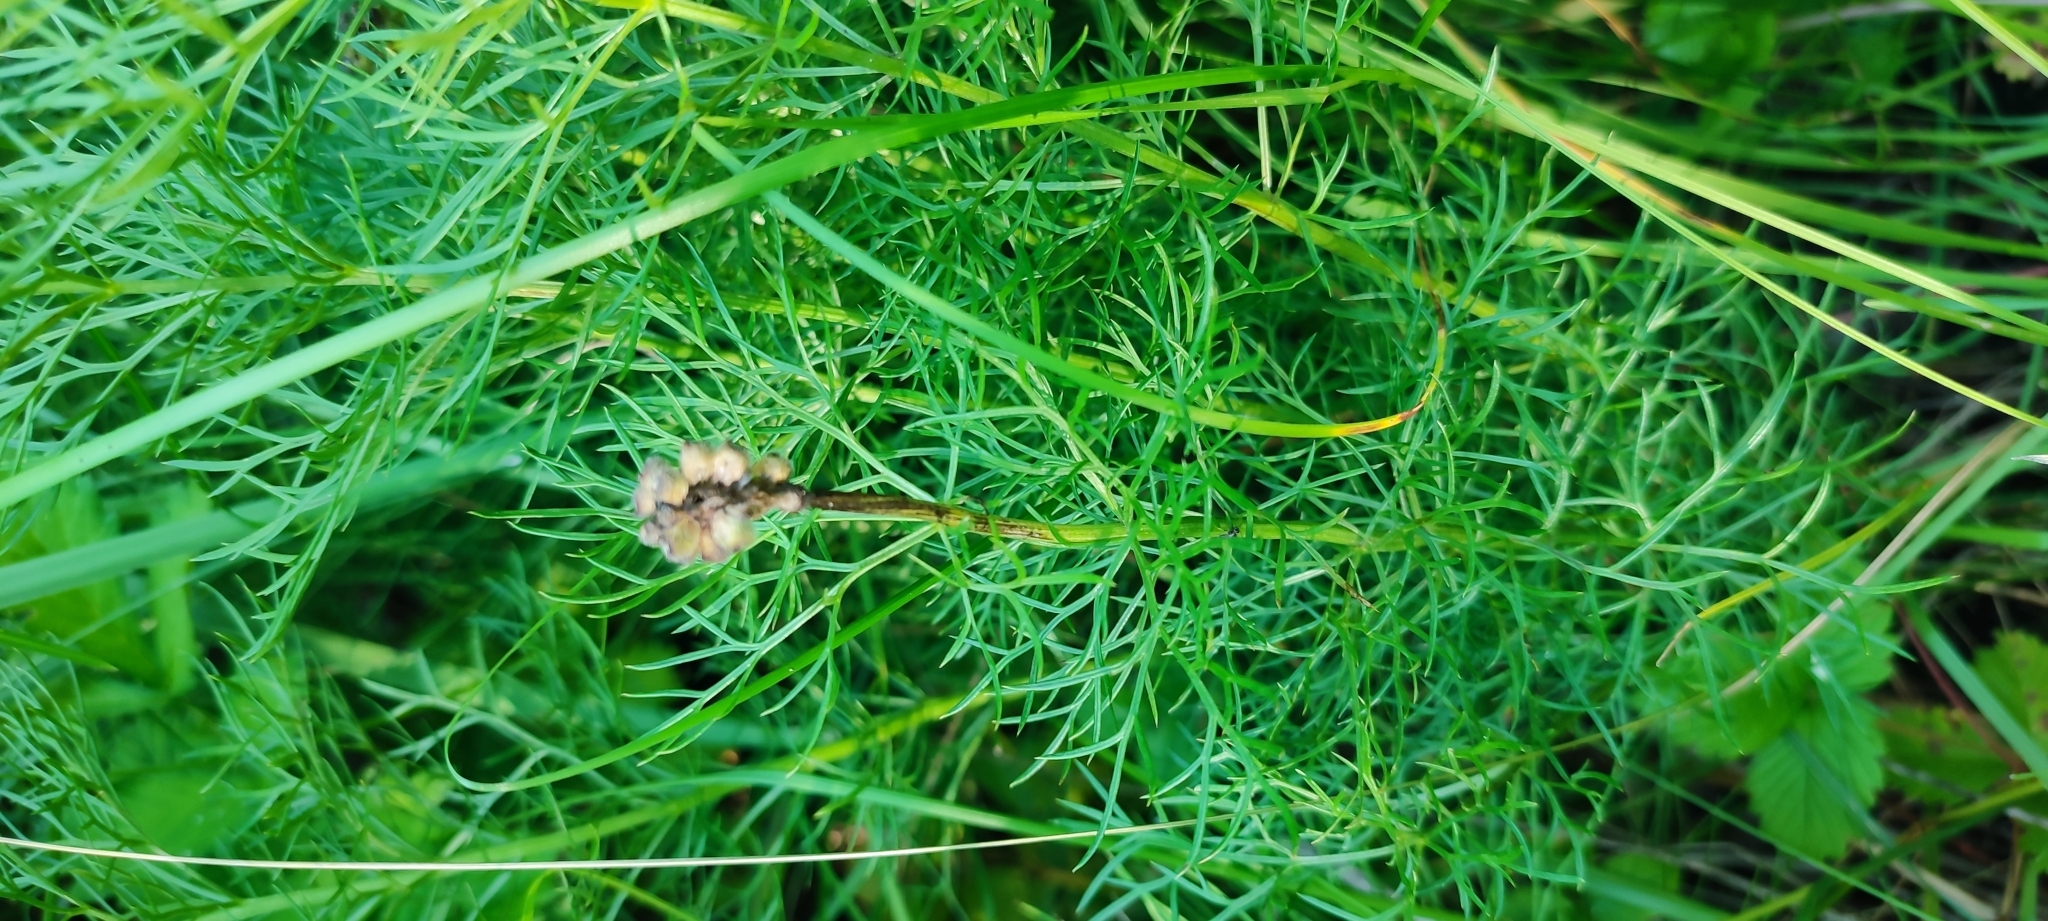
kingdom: Plantae
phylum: Tracheophyta
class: Magnoliopsida
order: Ranunculales
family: Ranunculaceae
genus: Adonis
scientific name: Adonis vernalis
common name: Yellow pheasants-eye
